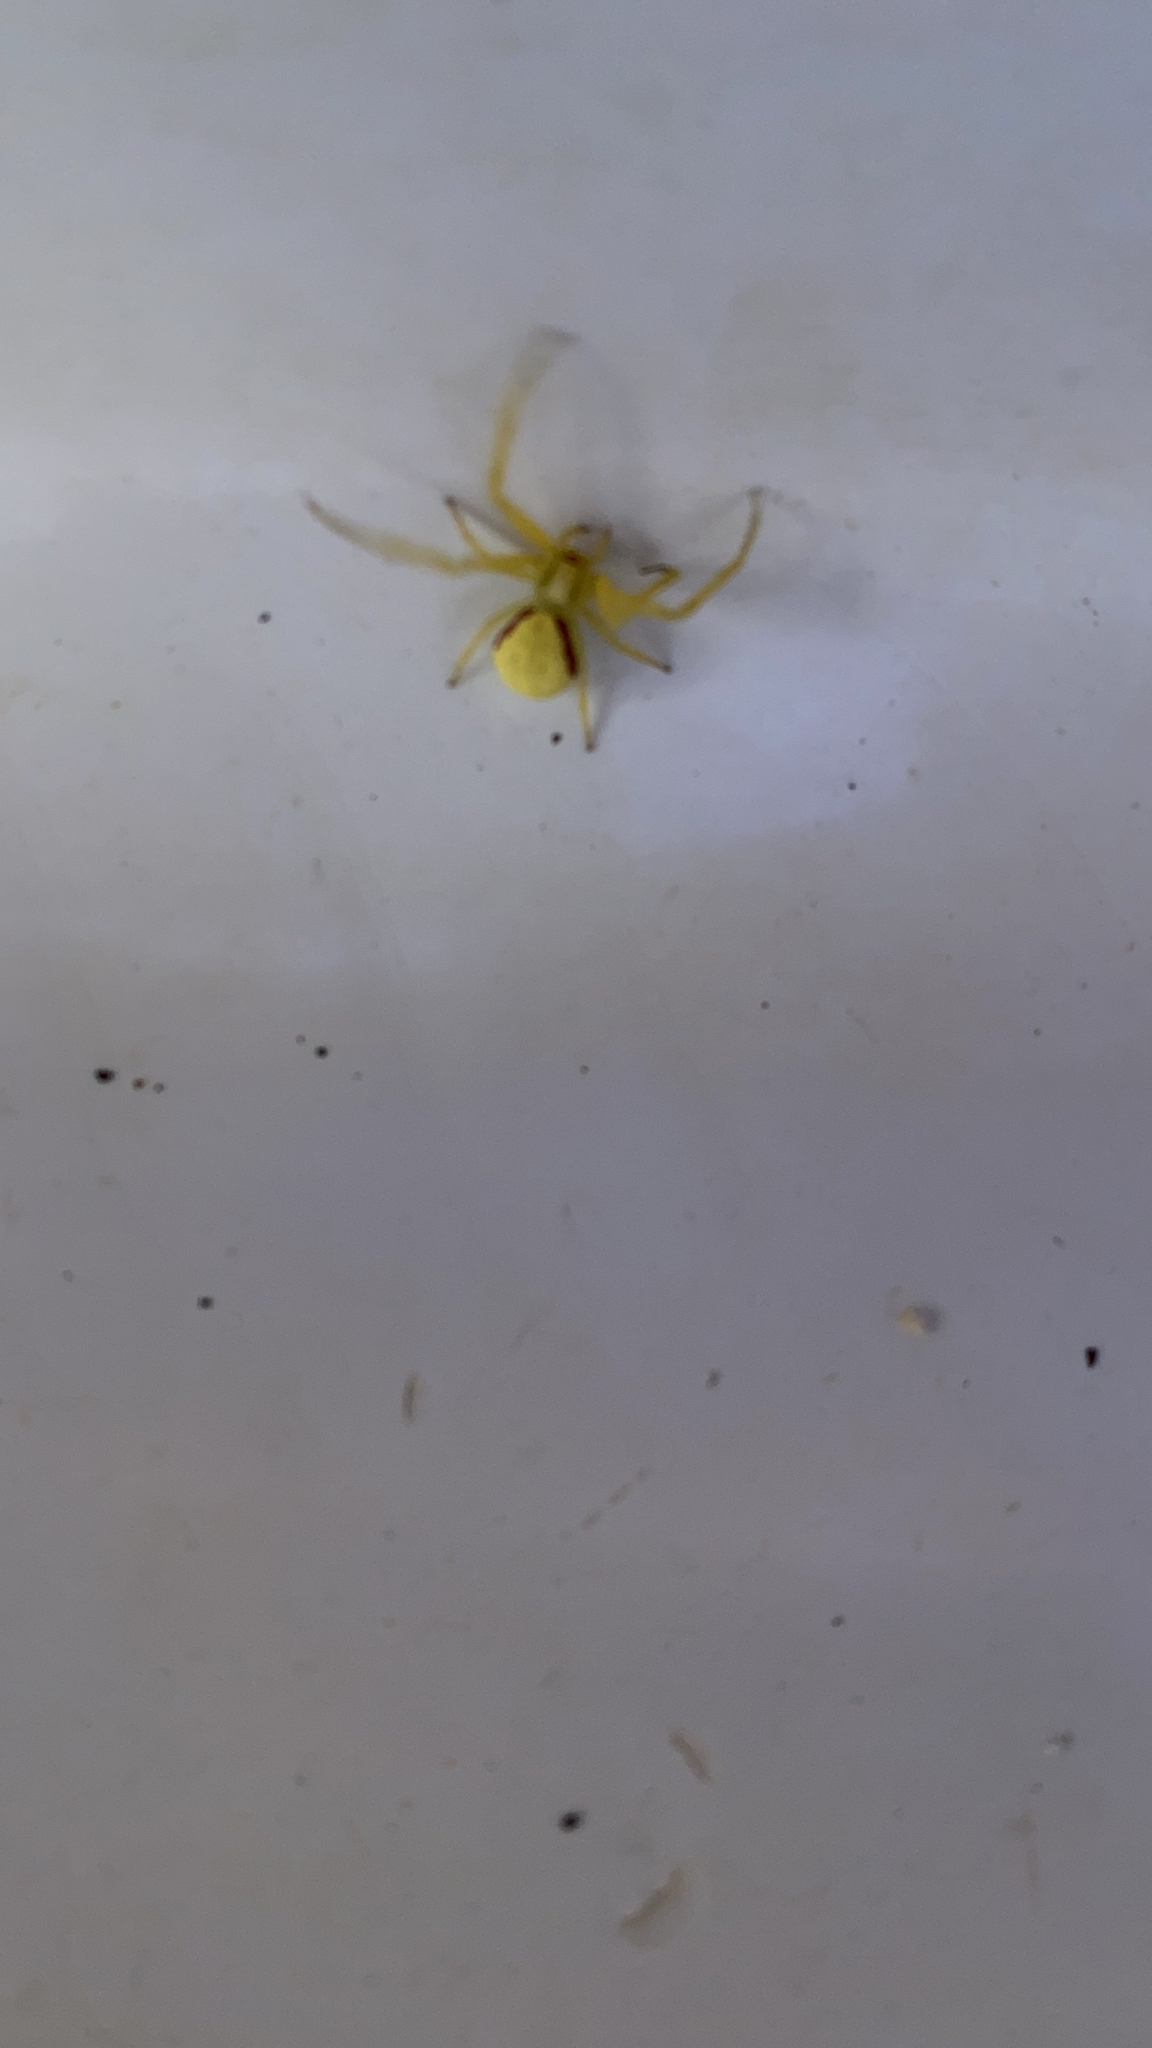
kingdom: Animalia
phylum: Arthropoda
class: Arachnida
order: Araneae
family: Thomisidae
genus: Misumena
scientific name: Misumena vatia
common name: Goldenrod crab spider
